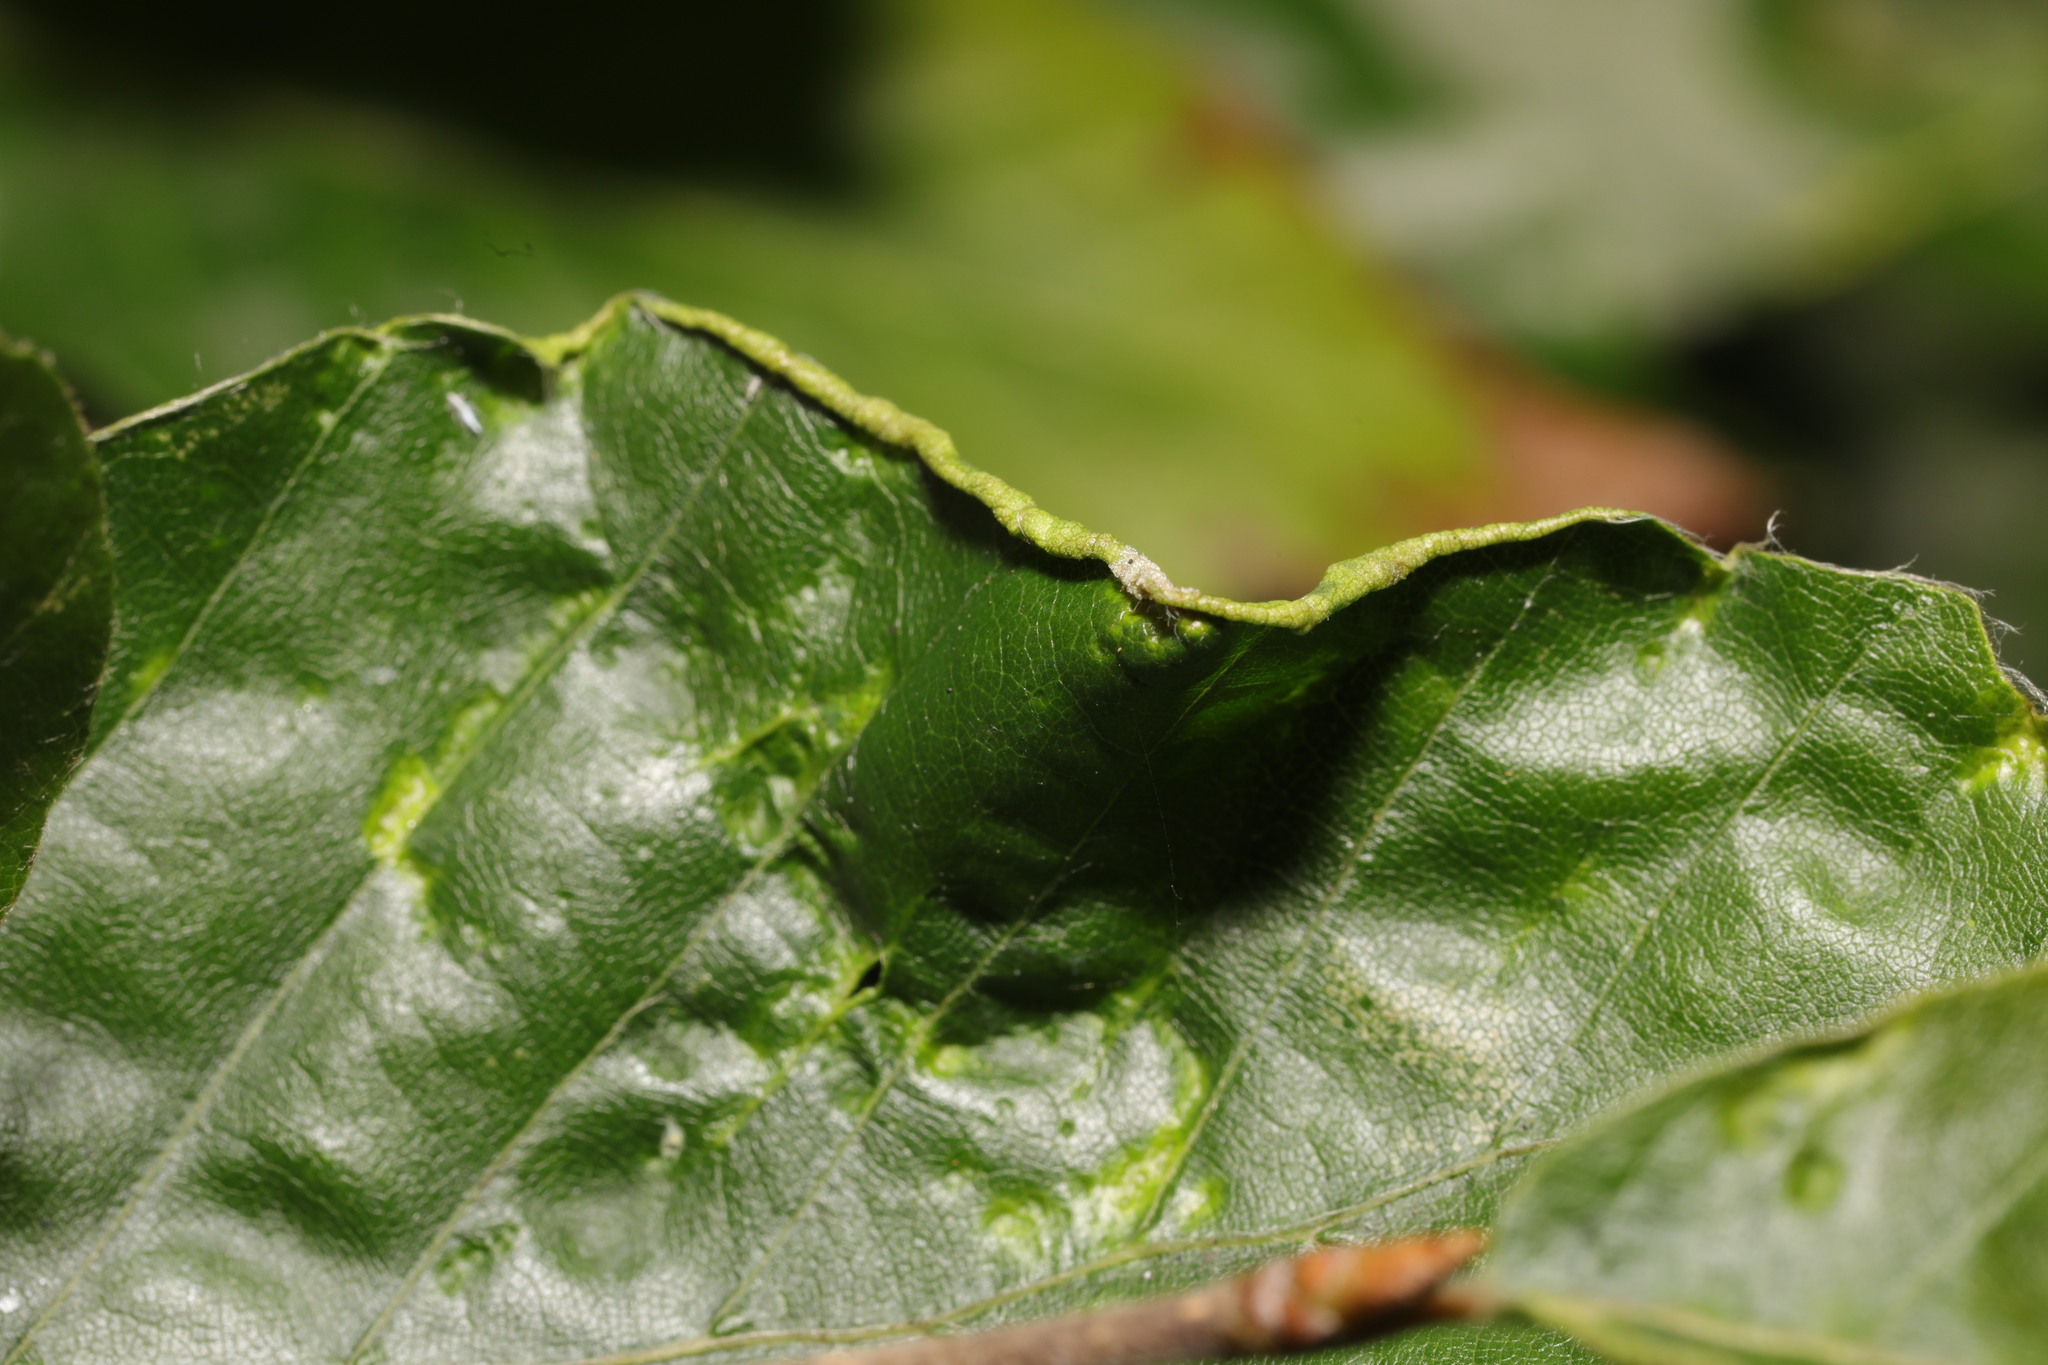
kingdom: Animalia
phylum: Arthropoda
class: Arachnida
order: Trombidiformes
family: Eriophyidae
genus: Acalitus
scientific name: Acalitus stenaspis
